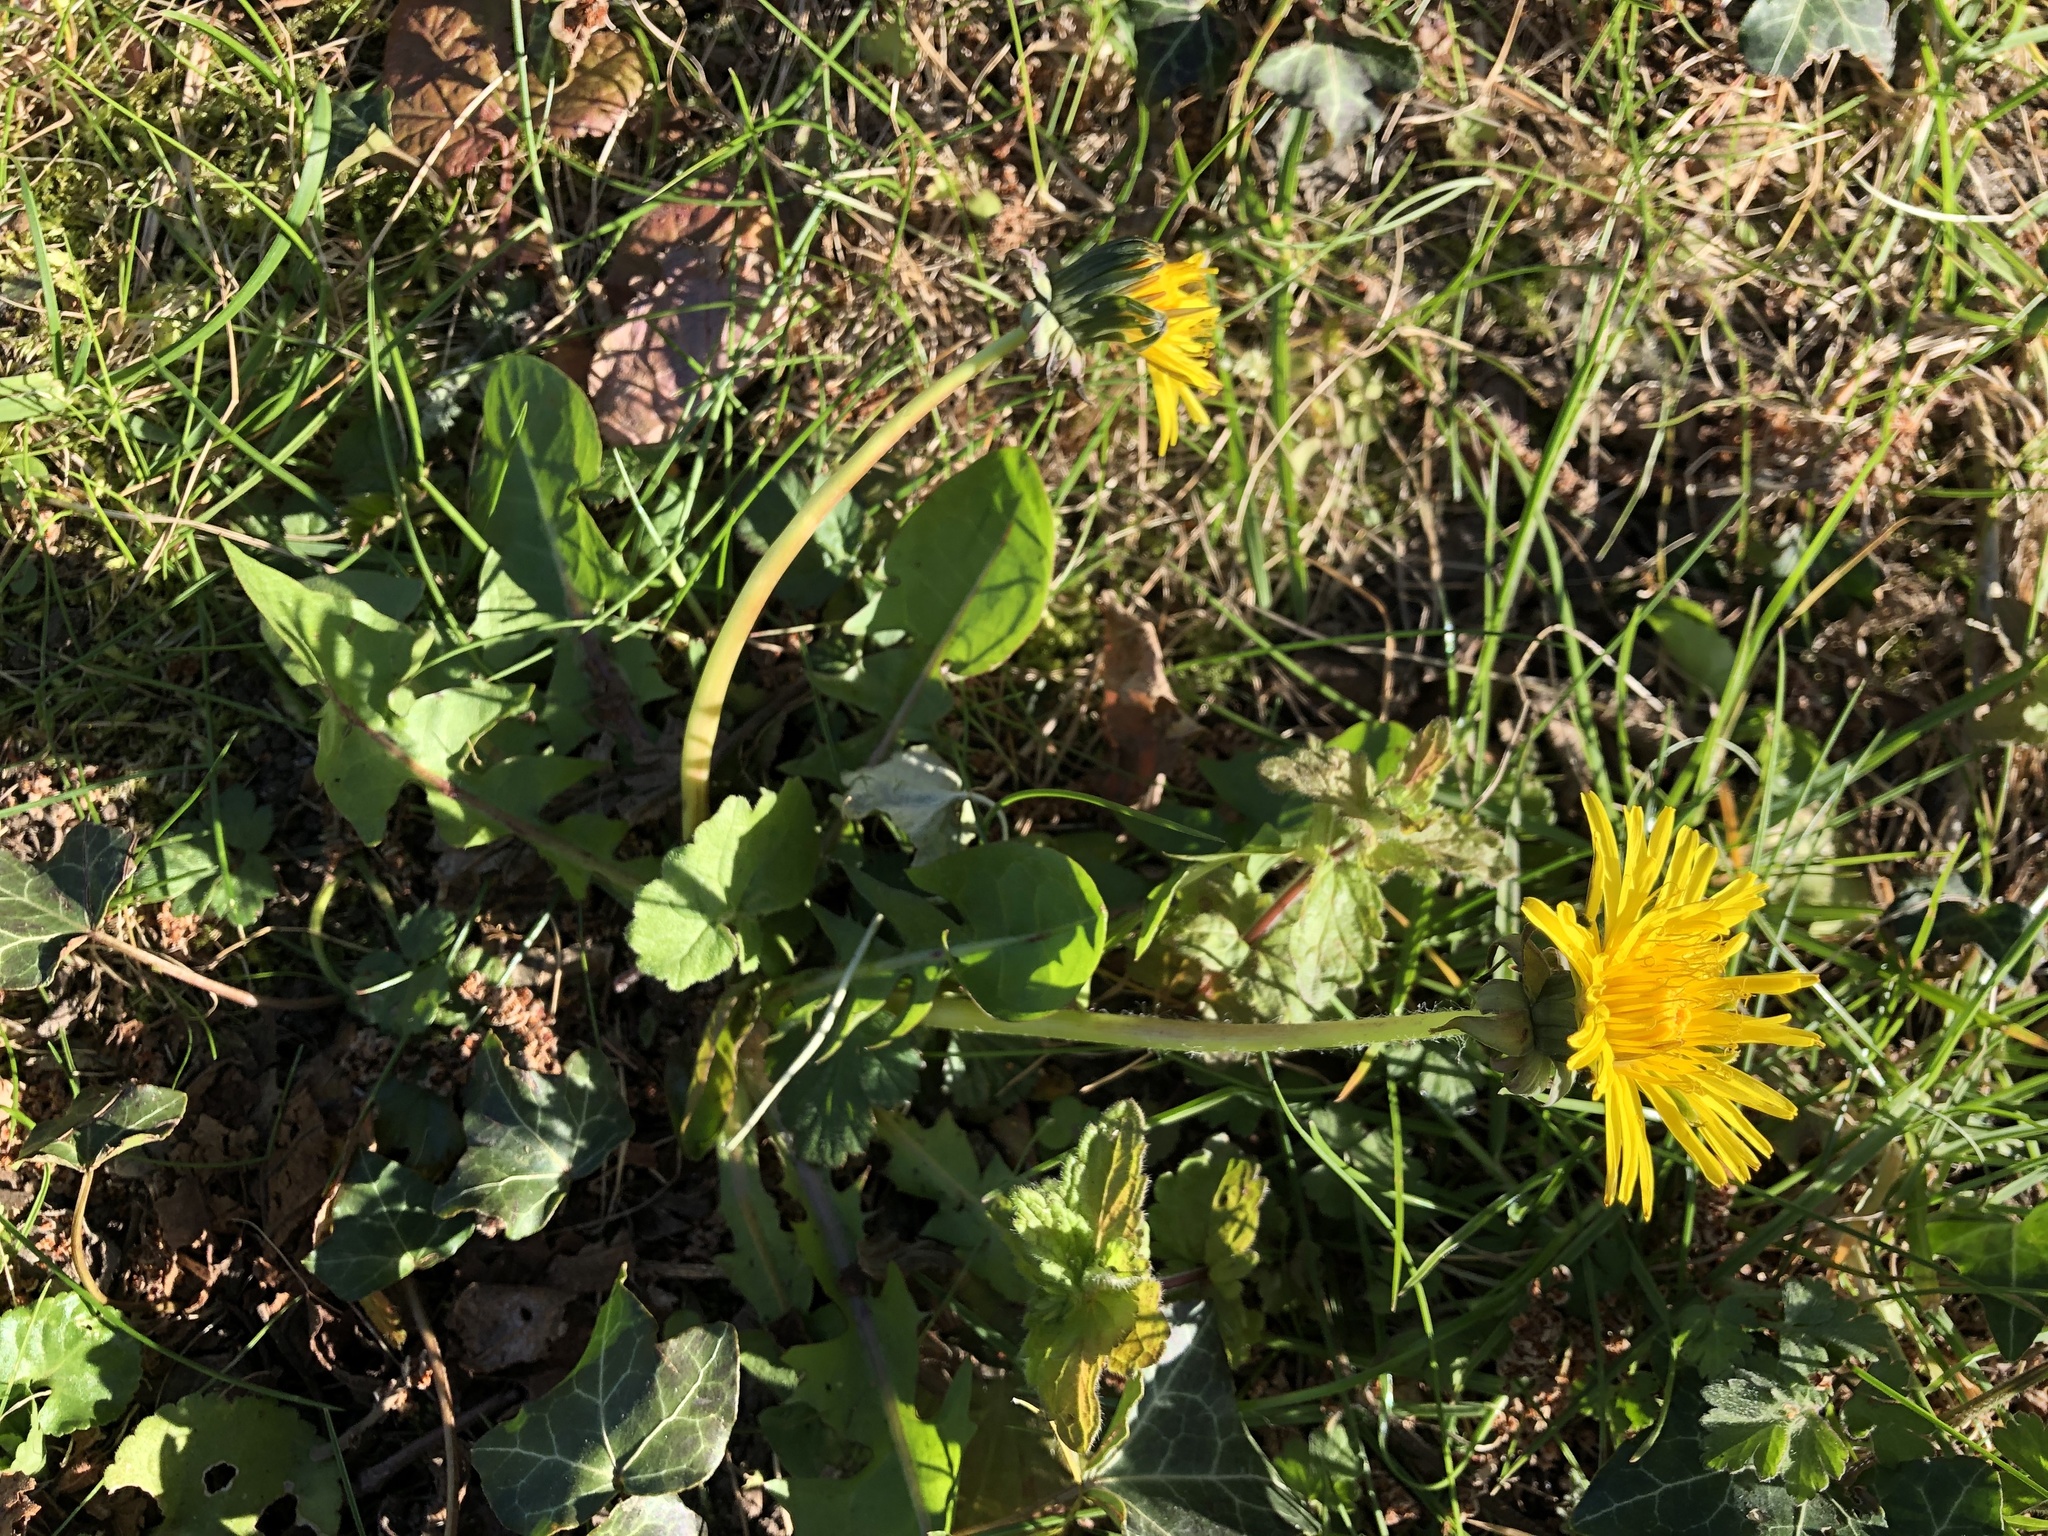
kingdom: Plantae
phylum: Tracheophyta
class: Magnoliopsida
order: Asterales
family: Asteraceae
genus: Taraxacum
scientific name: Taraxacum officinale
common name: Common dandelion
